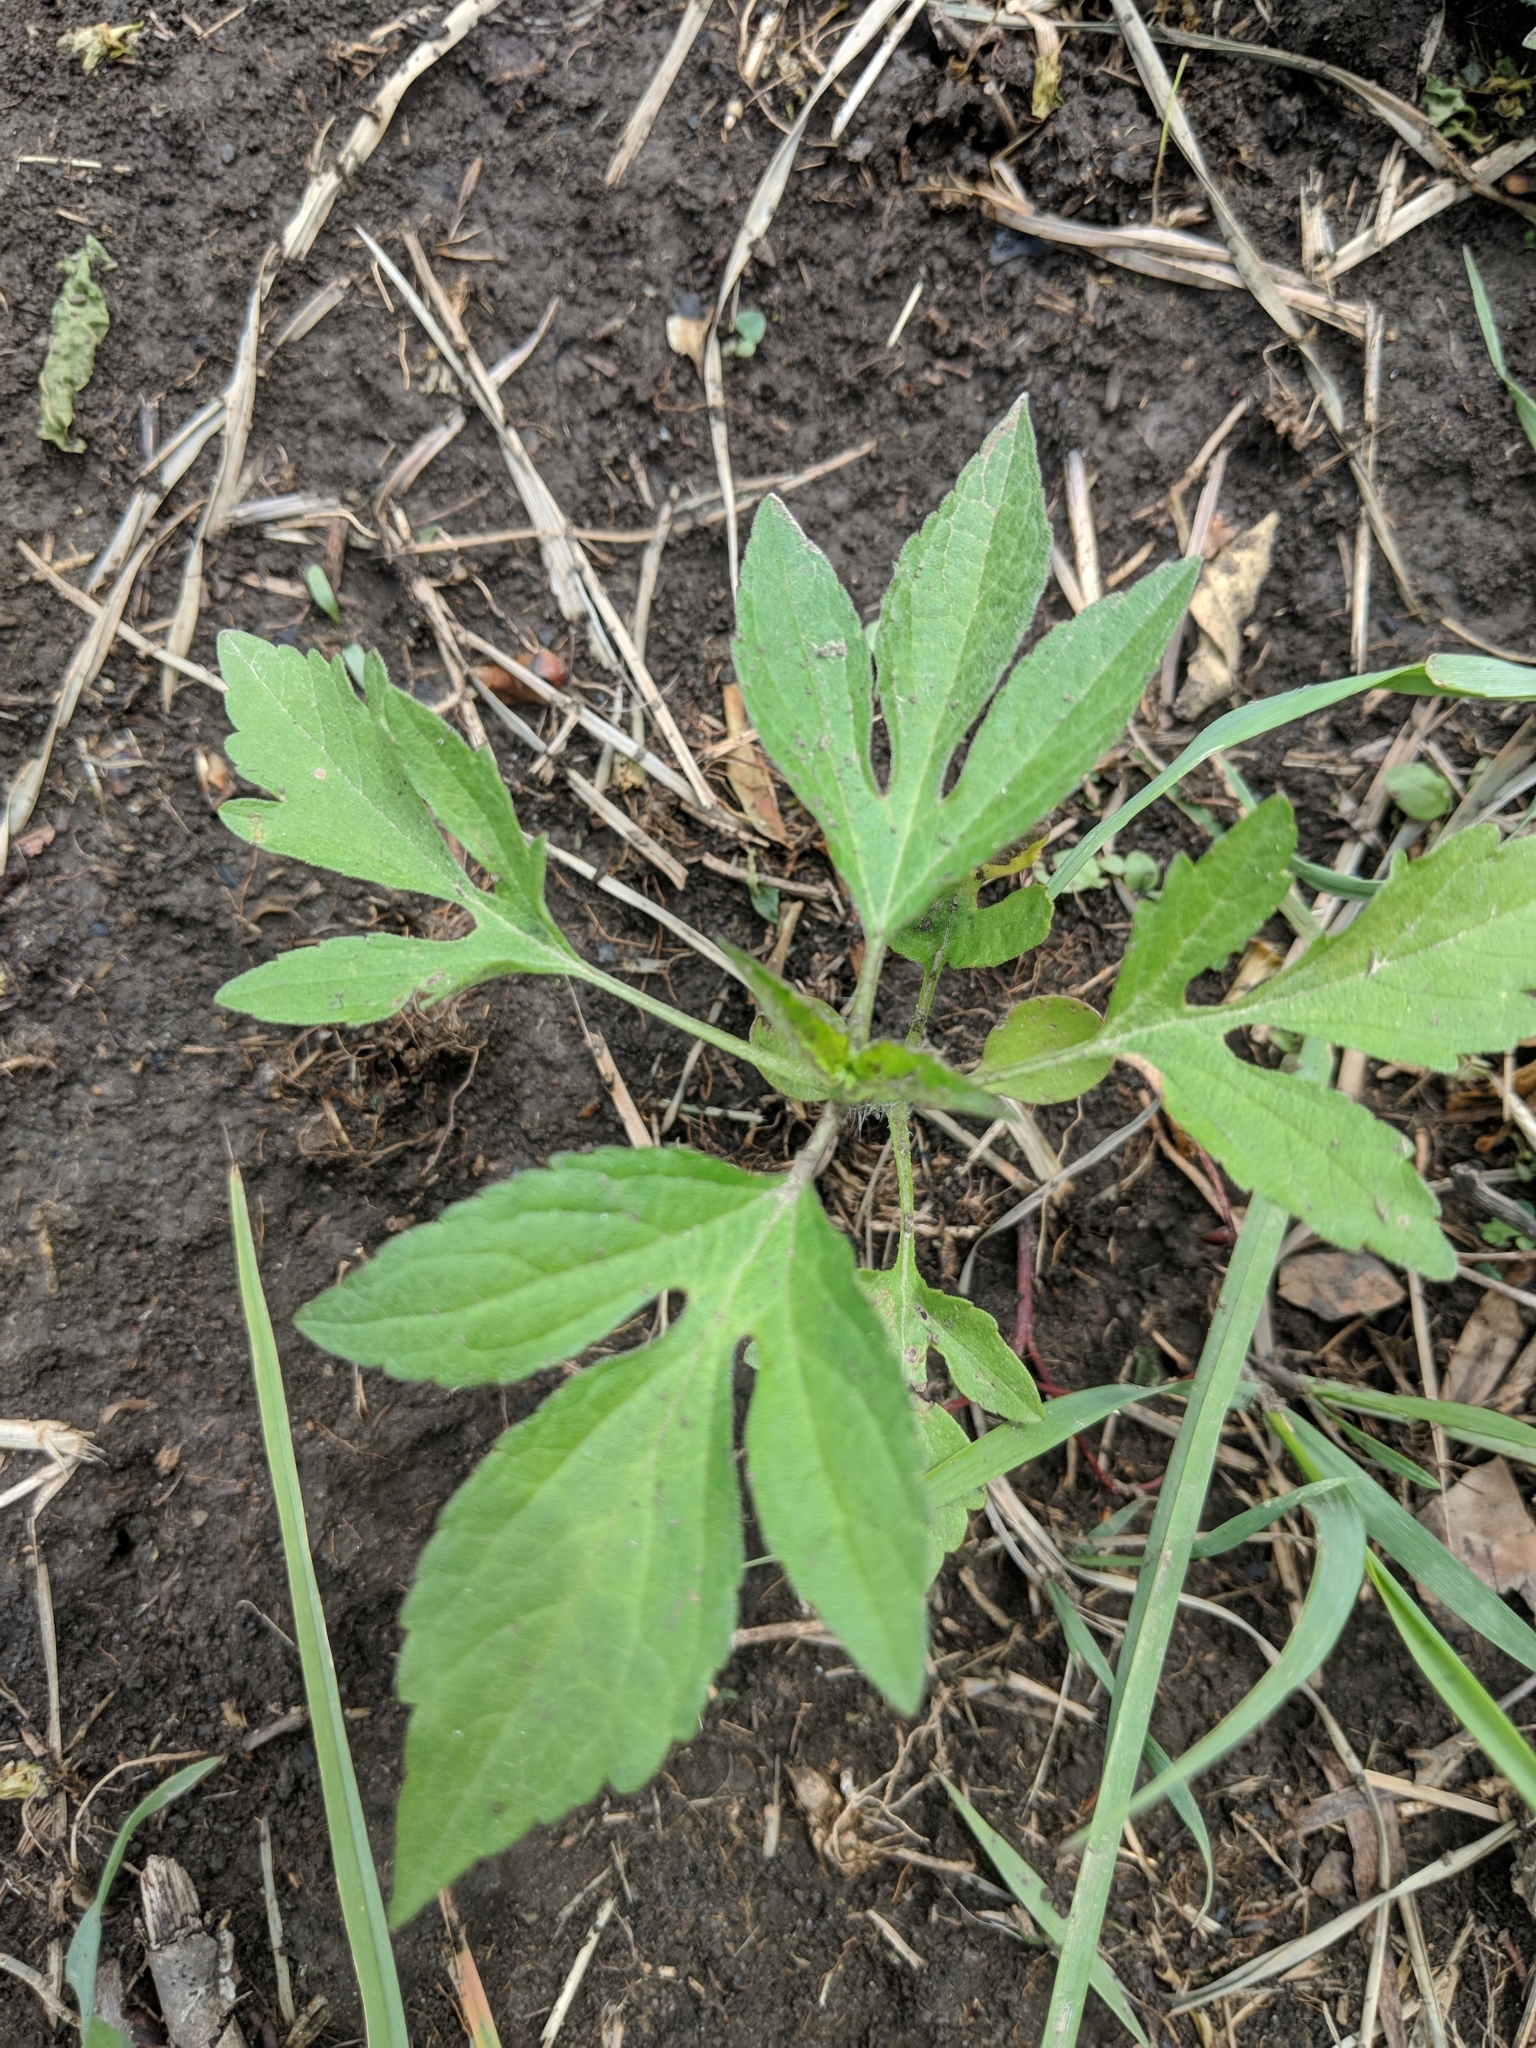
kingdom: Plantae
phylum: Tracheophyta
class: Magnoliopsida
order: Asterales
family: Asteraceae
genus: Ambrosia
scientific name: Ambrosia trifida
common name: Giant ragweed
